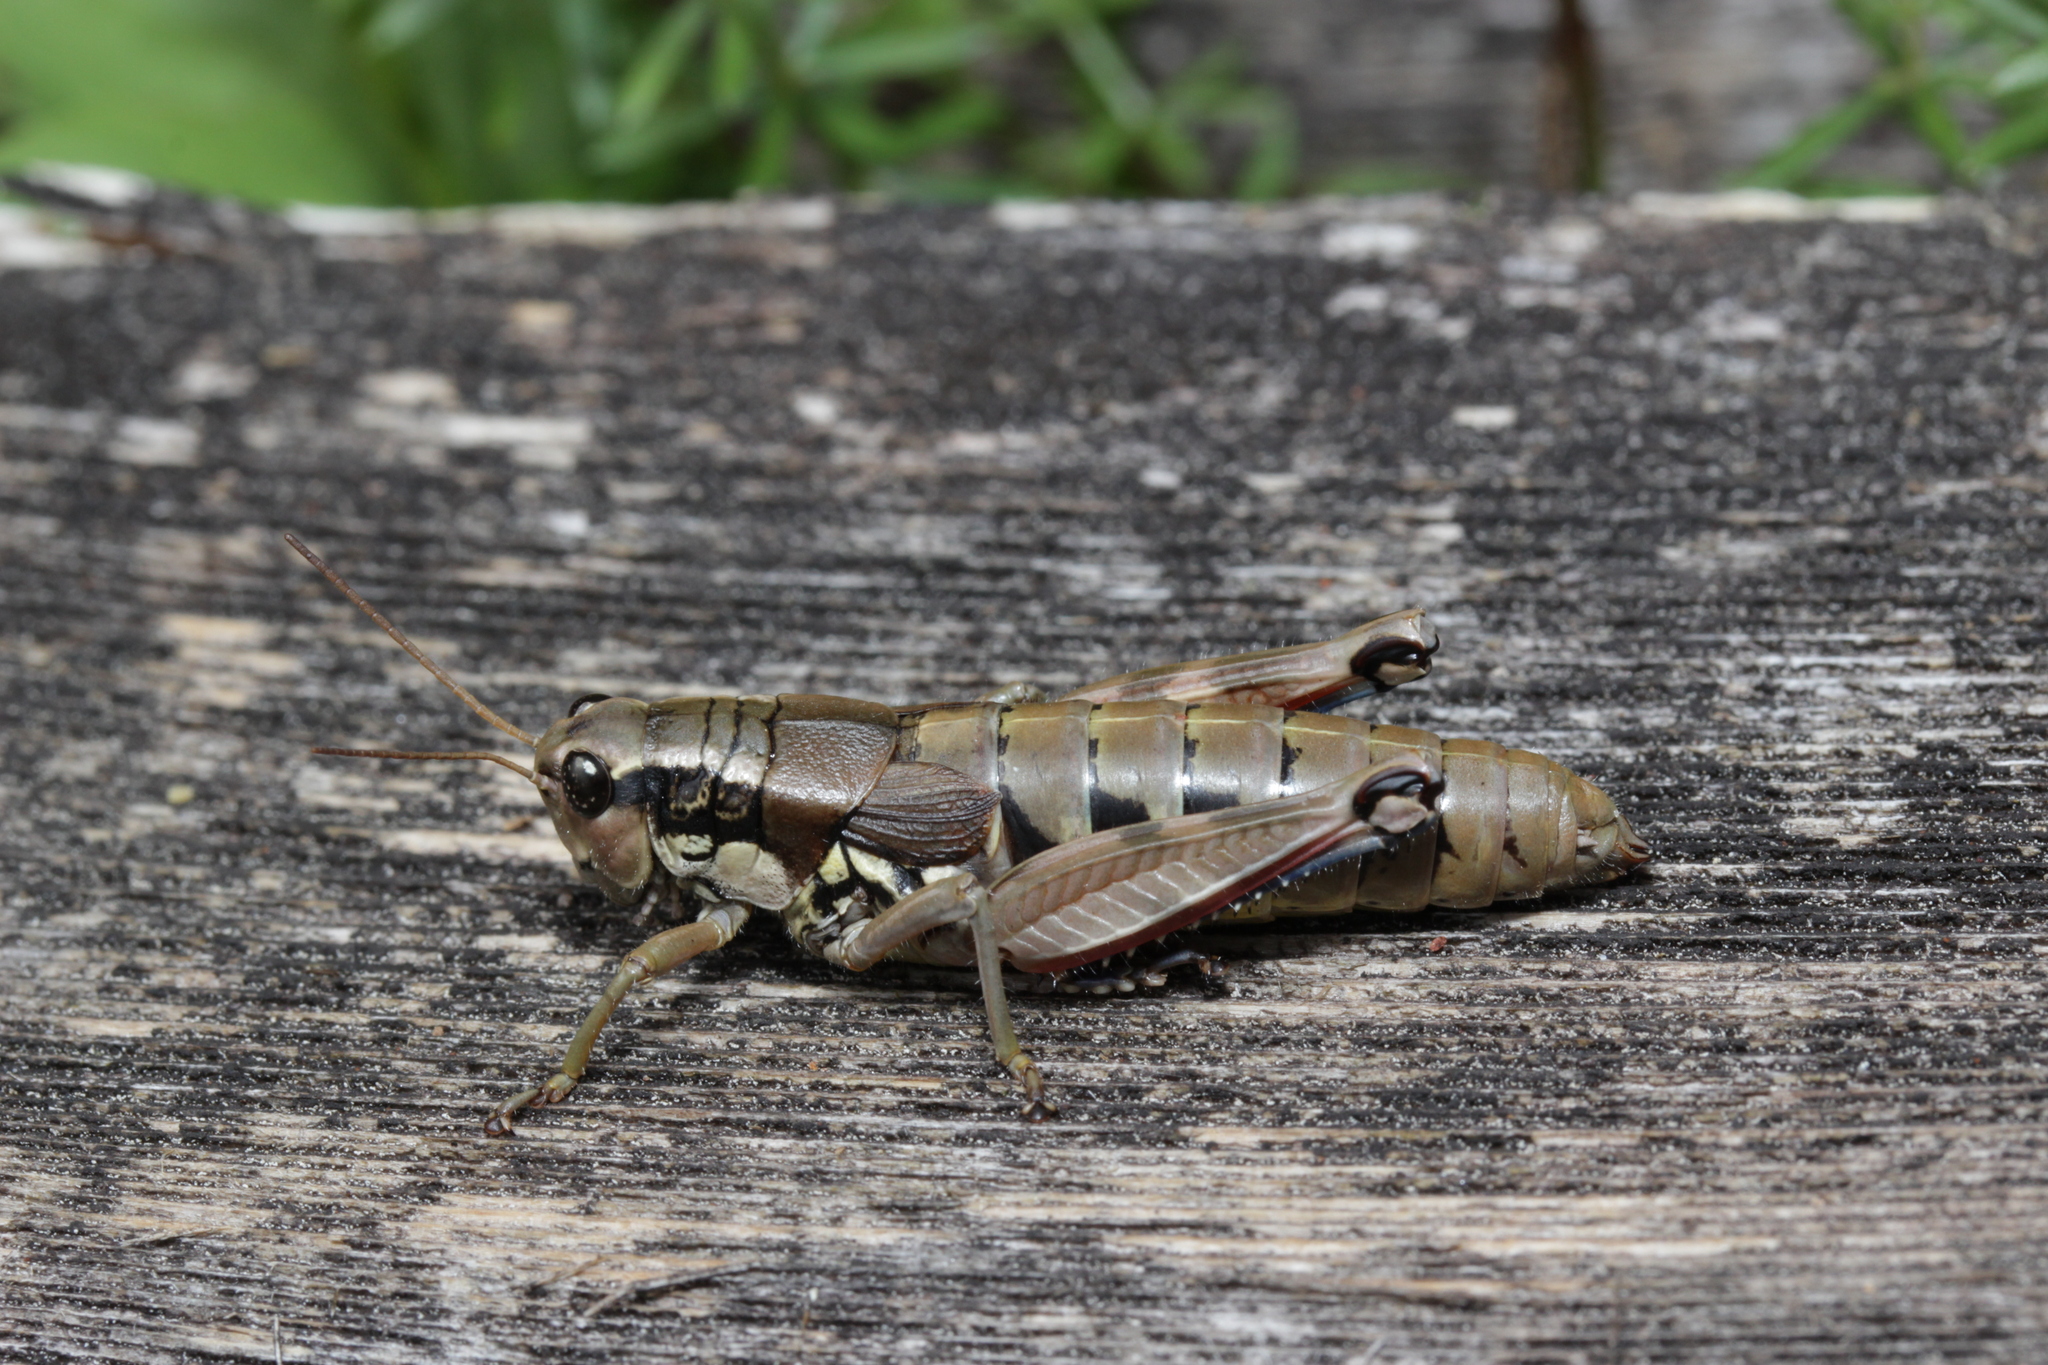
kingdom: Animalia
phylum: Arthropoda
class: Insecta
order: Orthoptera
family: Acrididae
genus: Podisma
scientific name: Podisma pedestris
